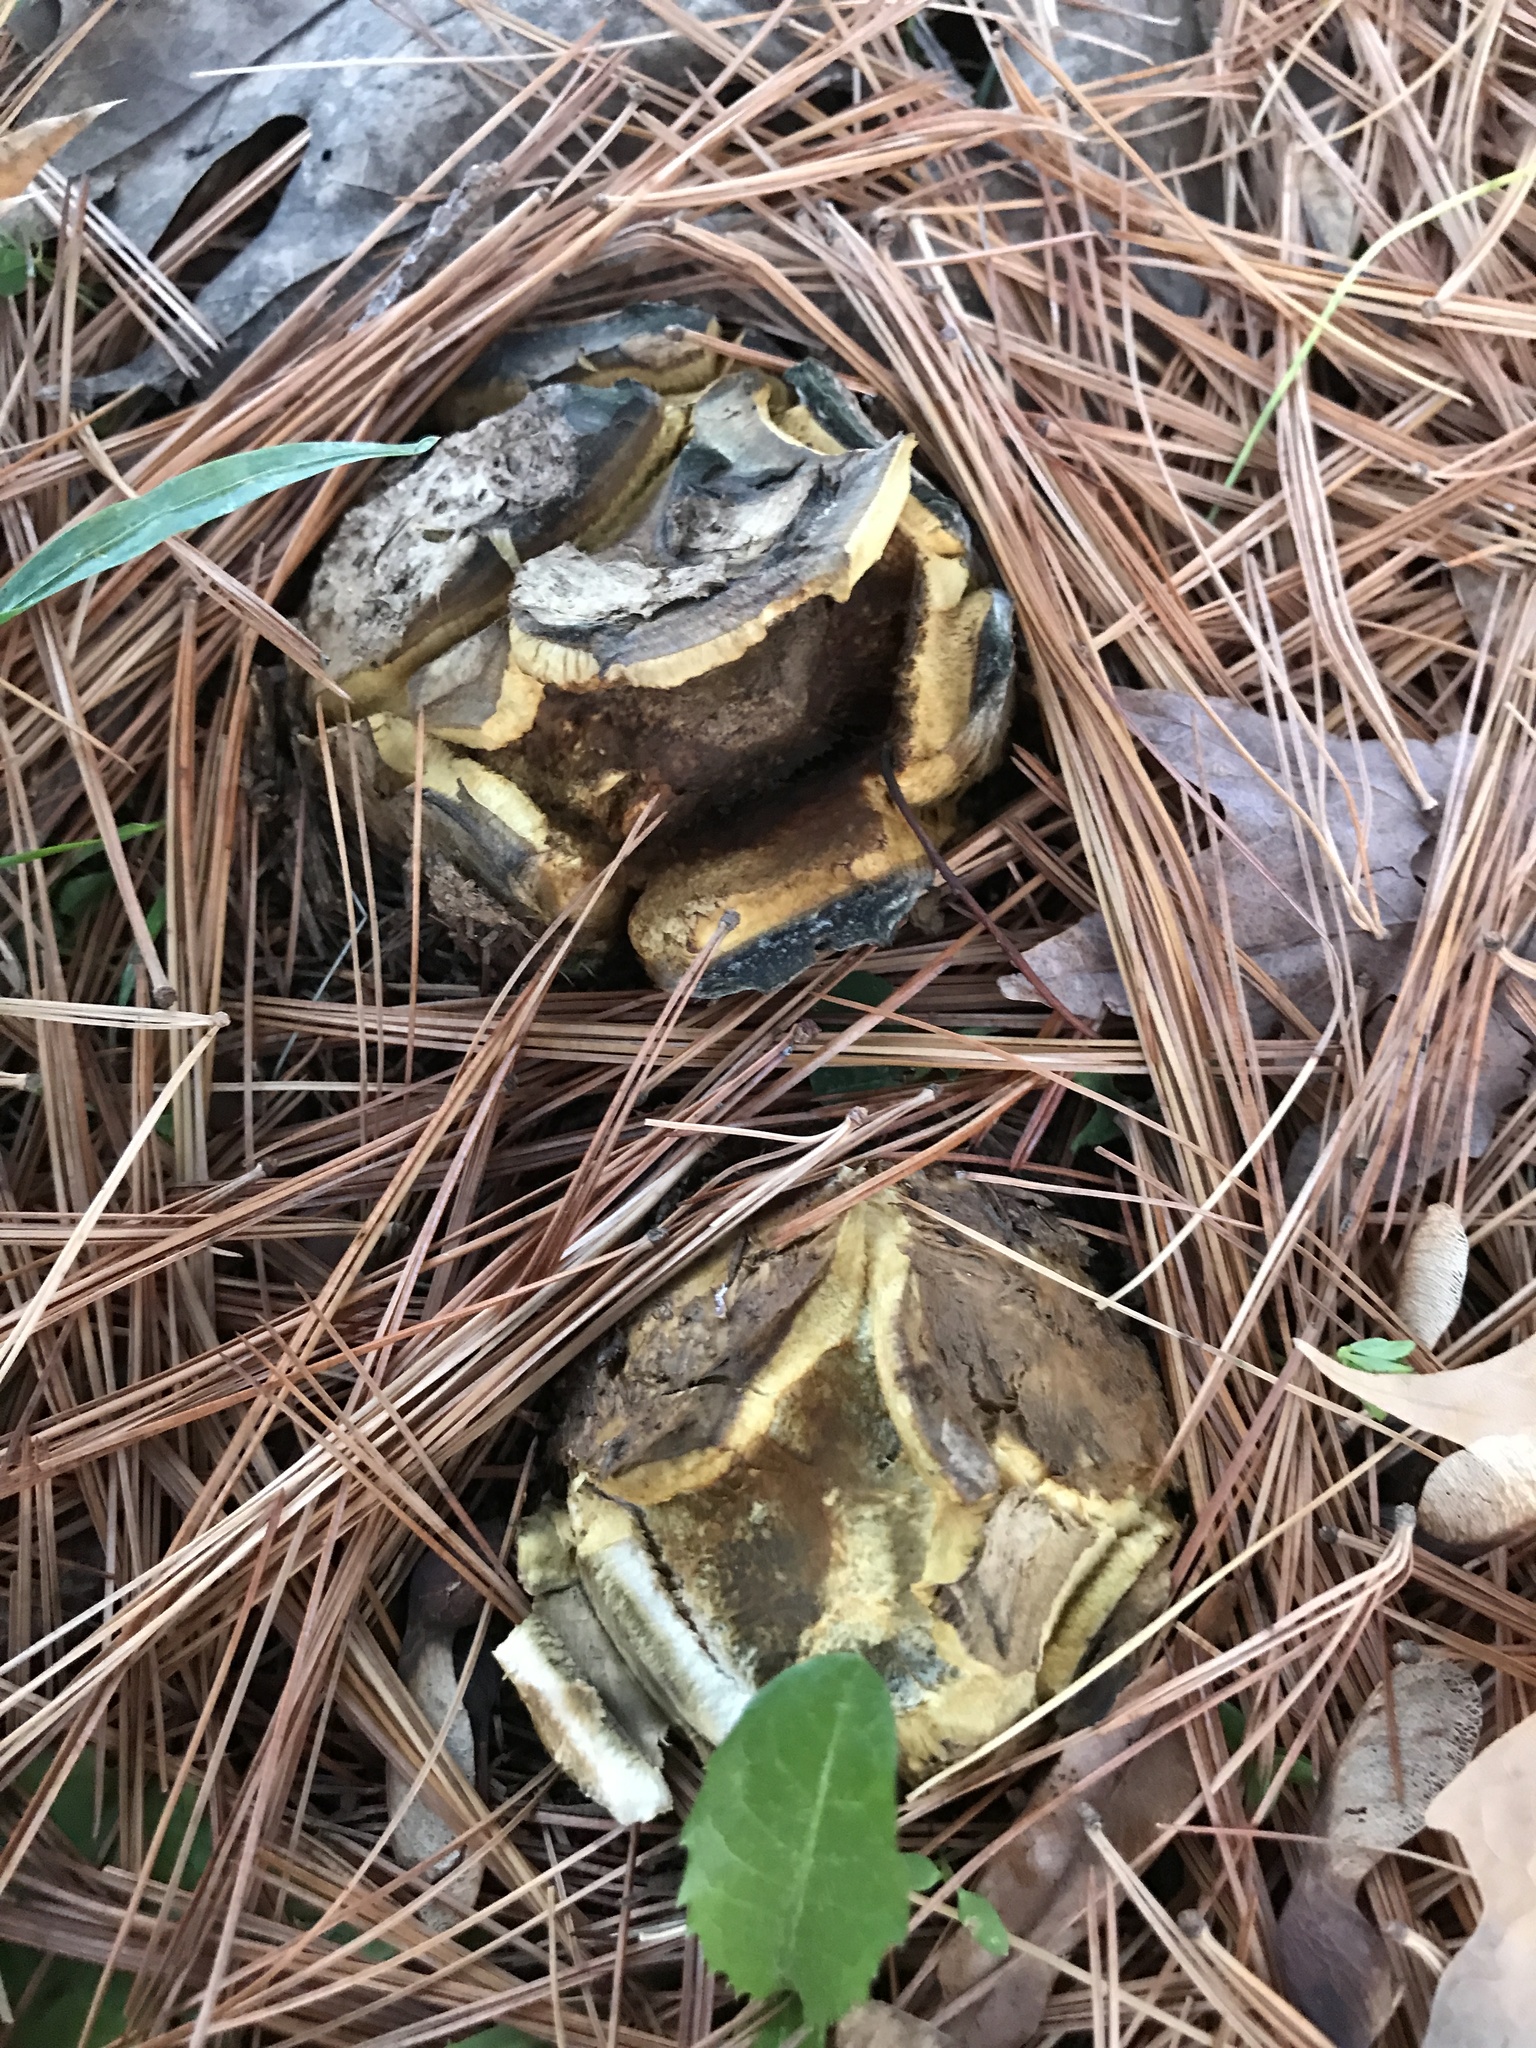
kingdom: Fungi
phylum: Basidiomycota
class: Agaricomycetes
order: Boletales
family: Sclerodermataceae
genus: Scleroderma
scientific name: Scleroderma polyrhizum
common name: Many-rooted earthball
